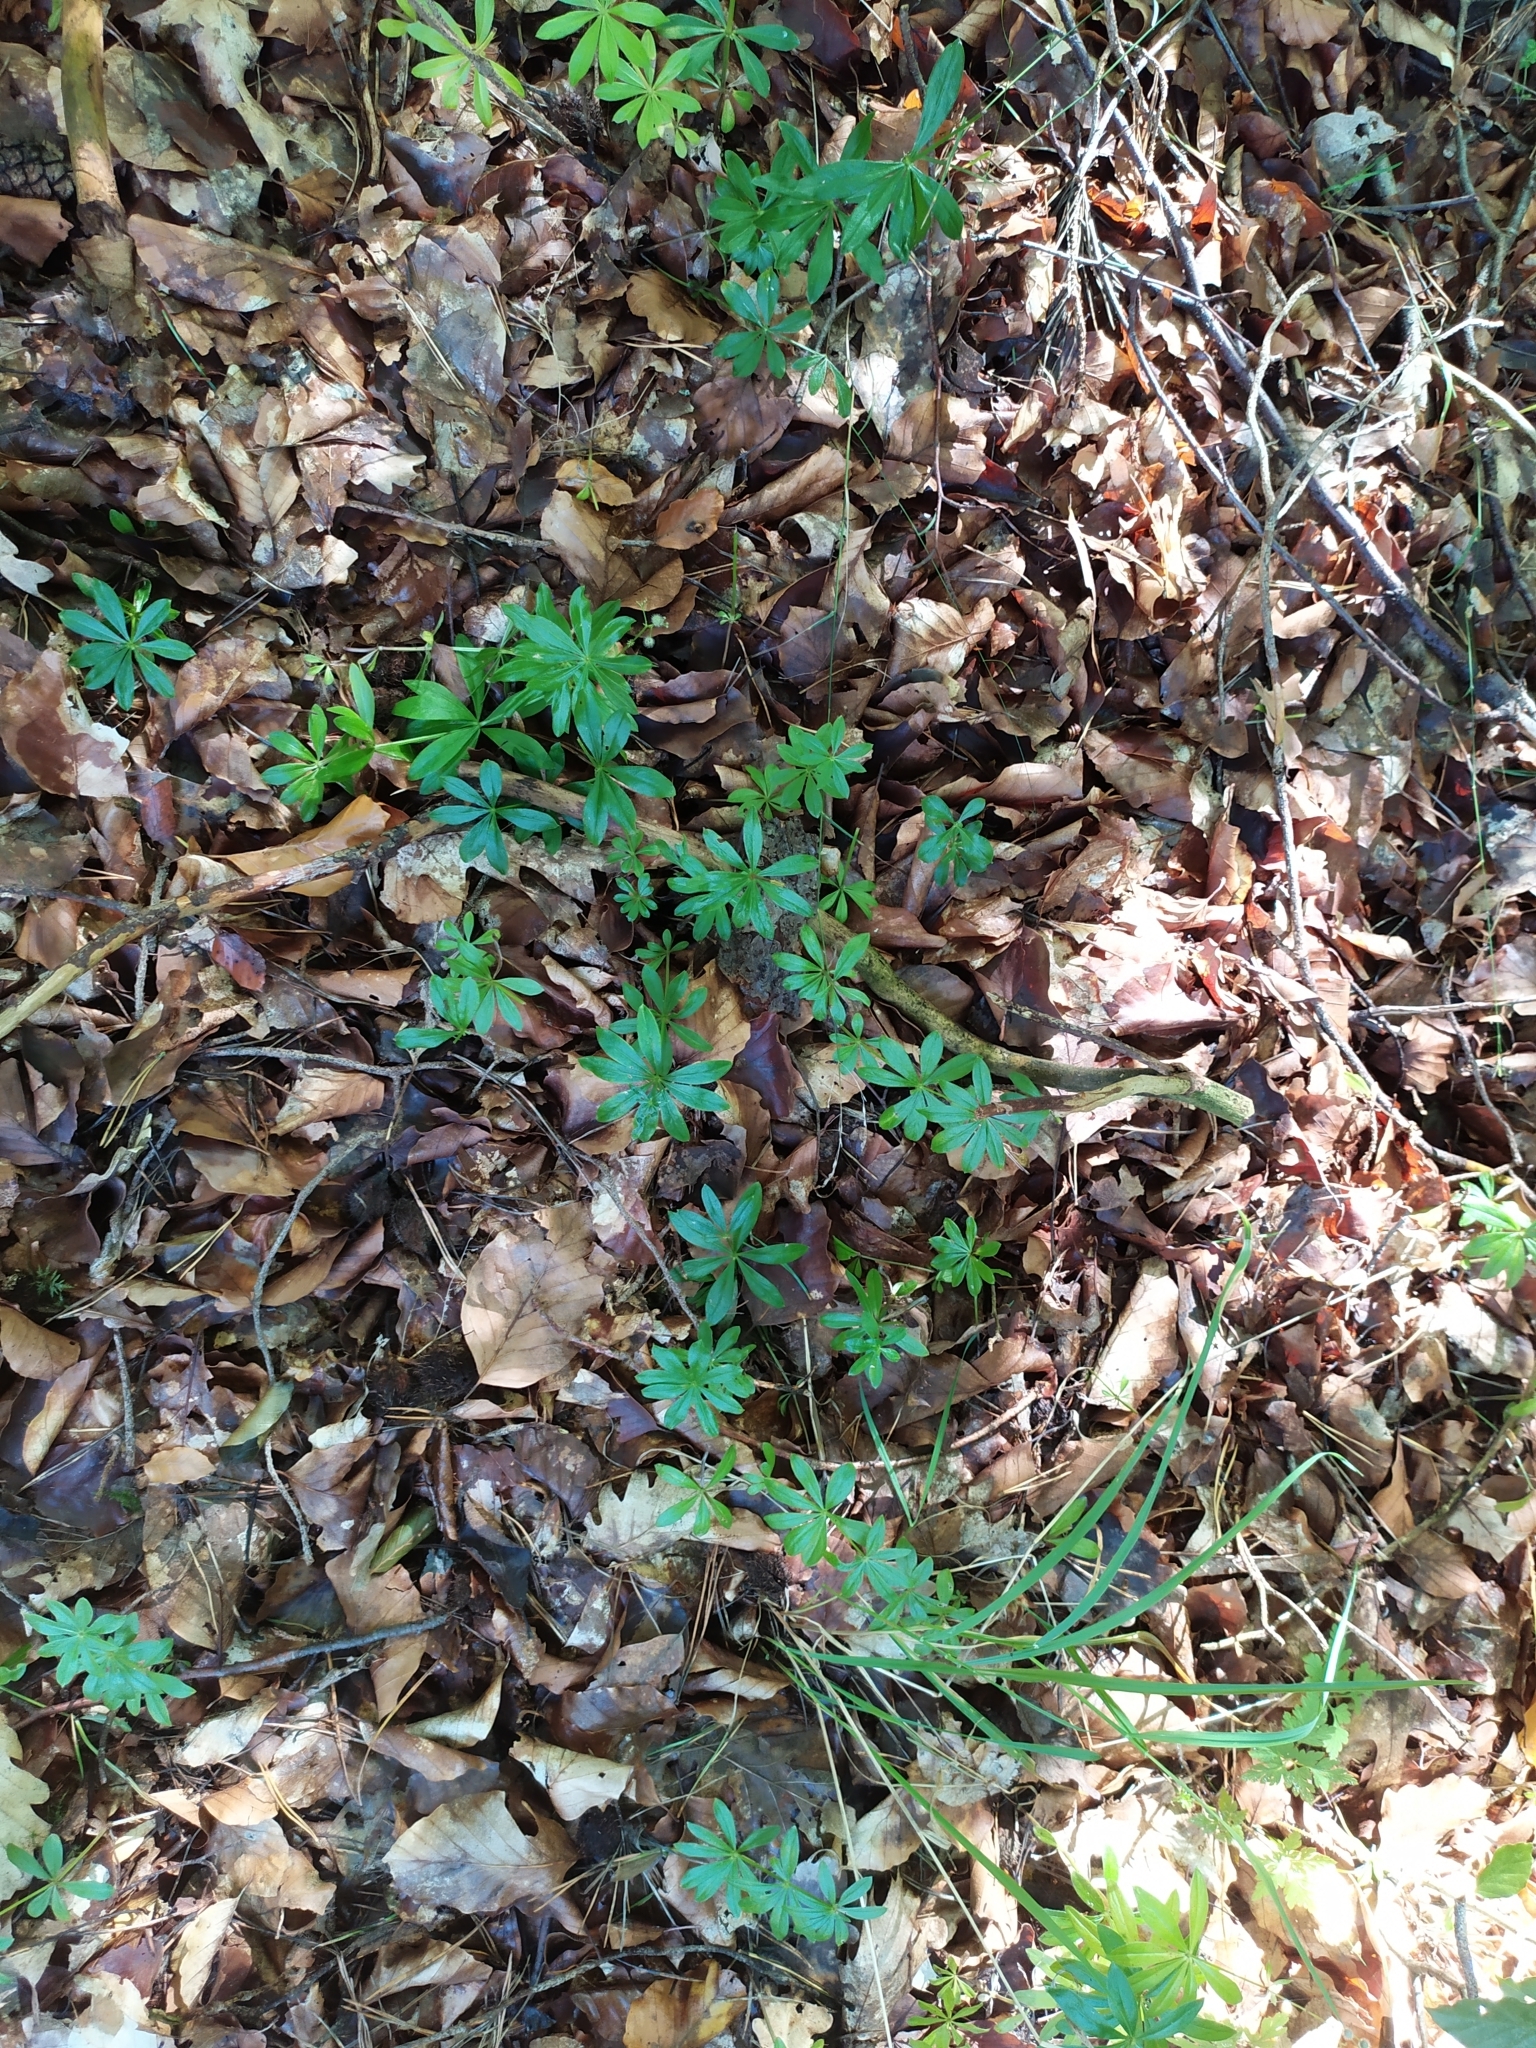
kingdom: Plantae
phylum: Tracheophyta
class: Magnoliopsida
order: Gentianales
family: Rubiaceae
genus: Galium
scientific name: Galium odoratum
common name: Sweet woodruff
